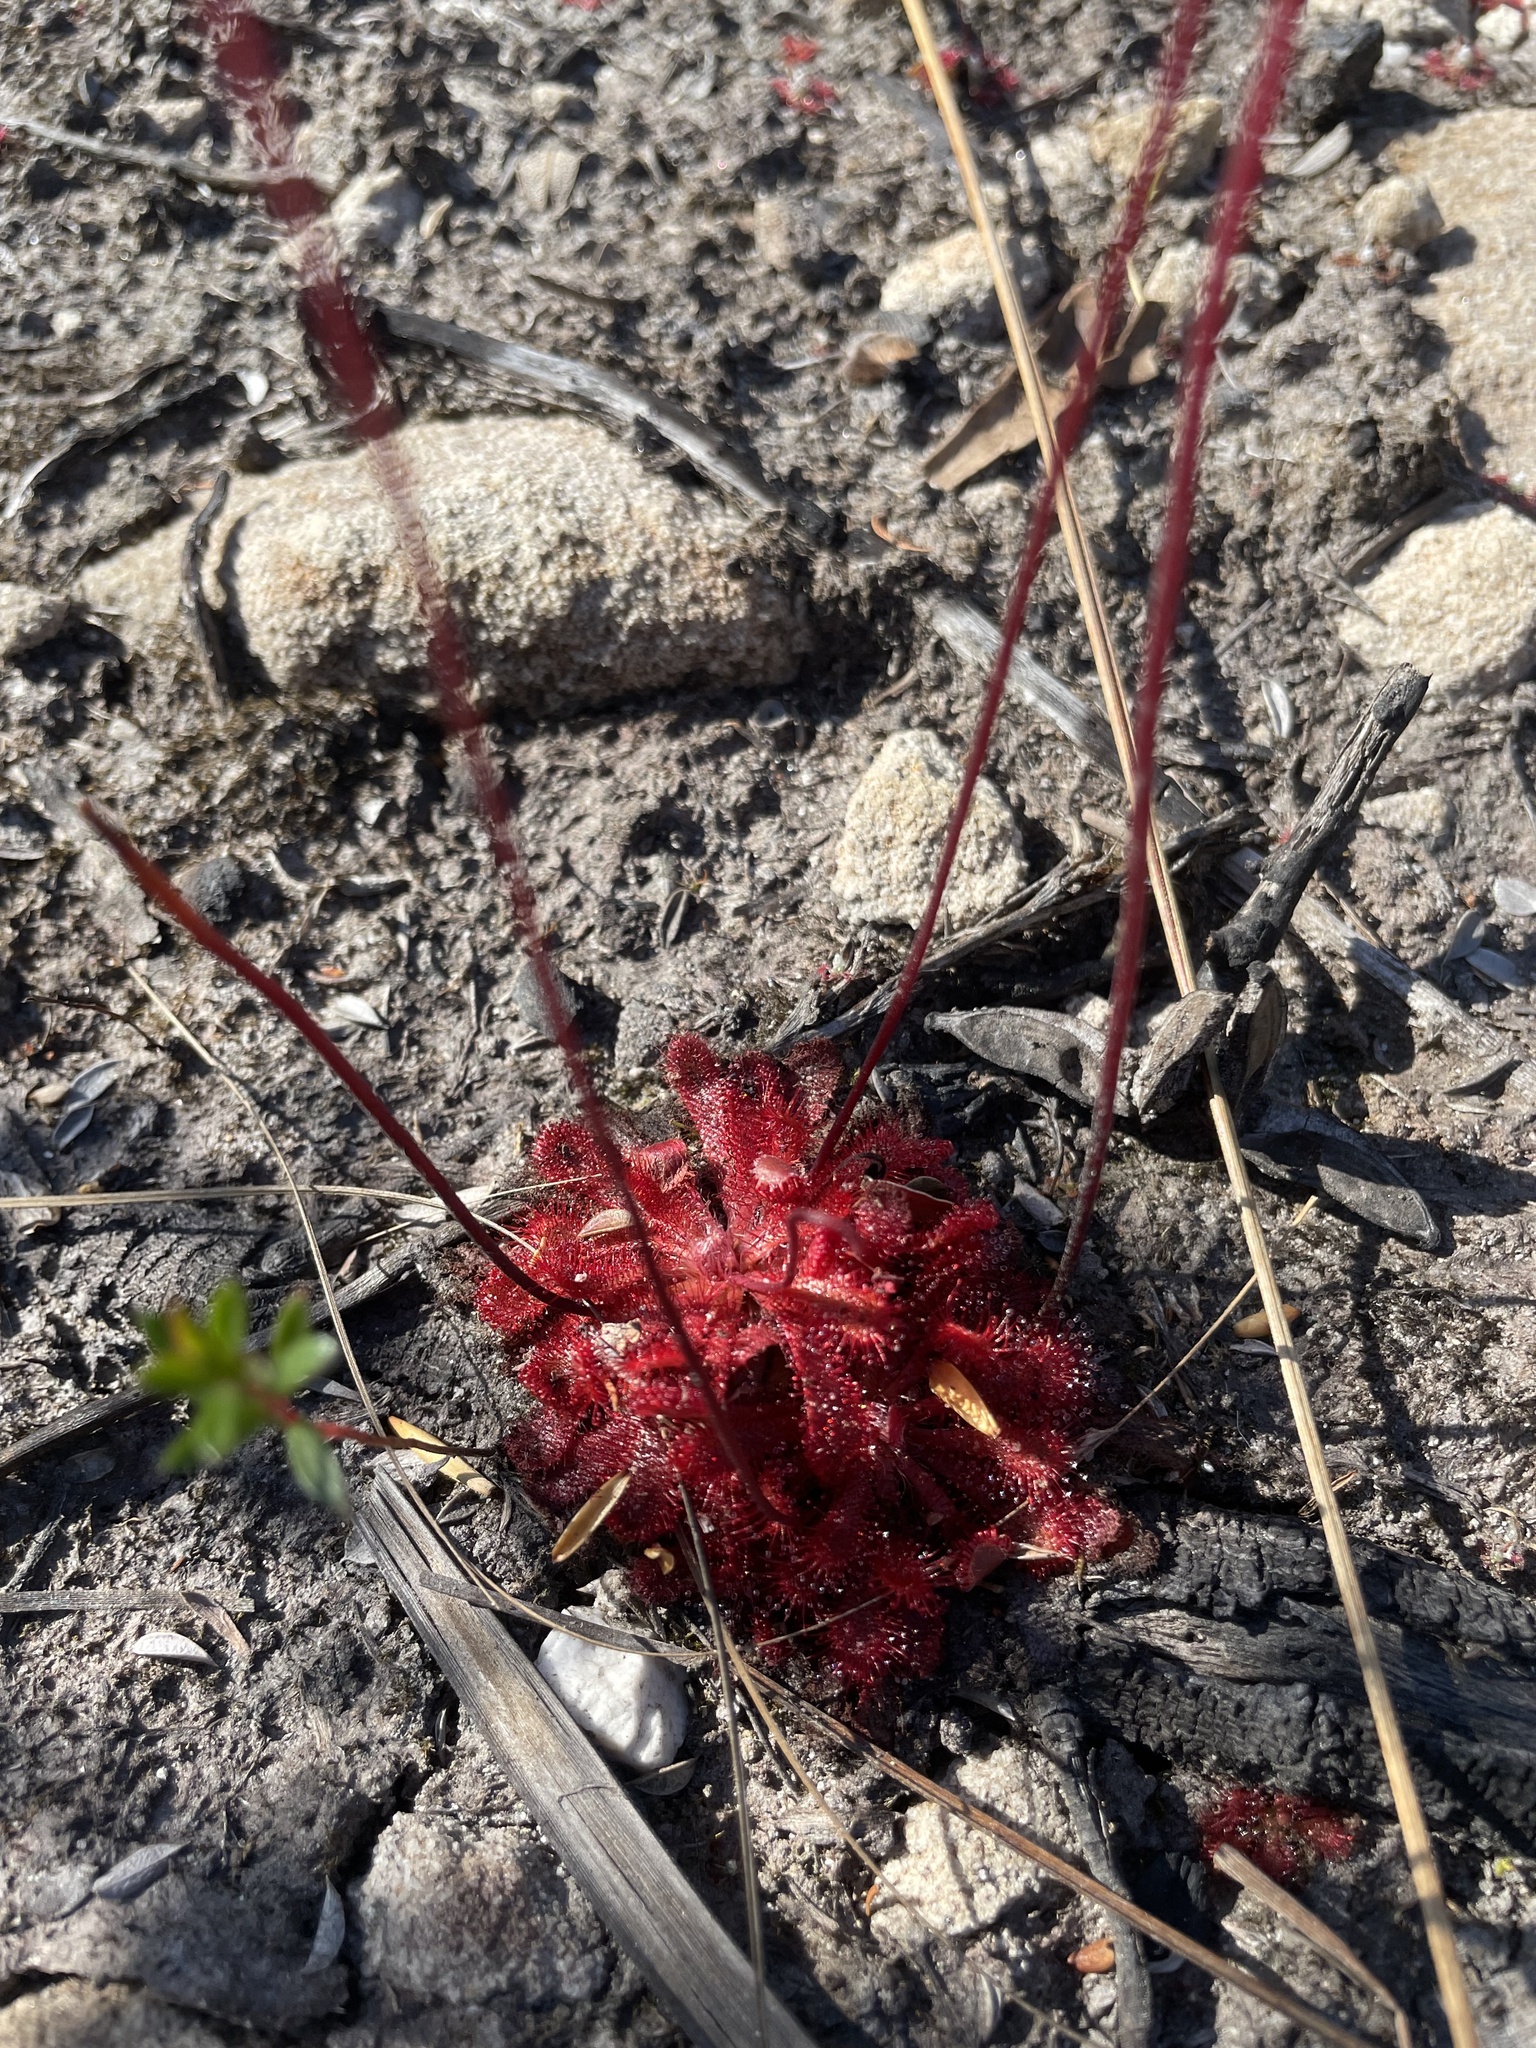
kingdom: Plantae
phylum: Tracheophyta
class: Magnoliopsida
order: Caryophyllales
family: Droseraceae
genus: Drosera
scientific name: Drosera spatulata
